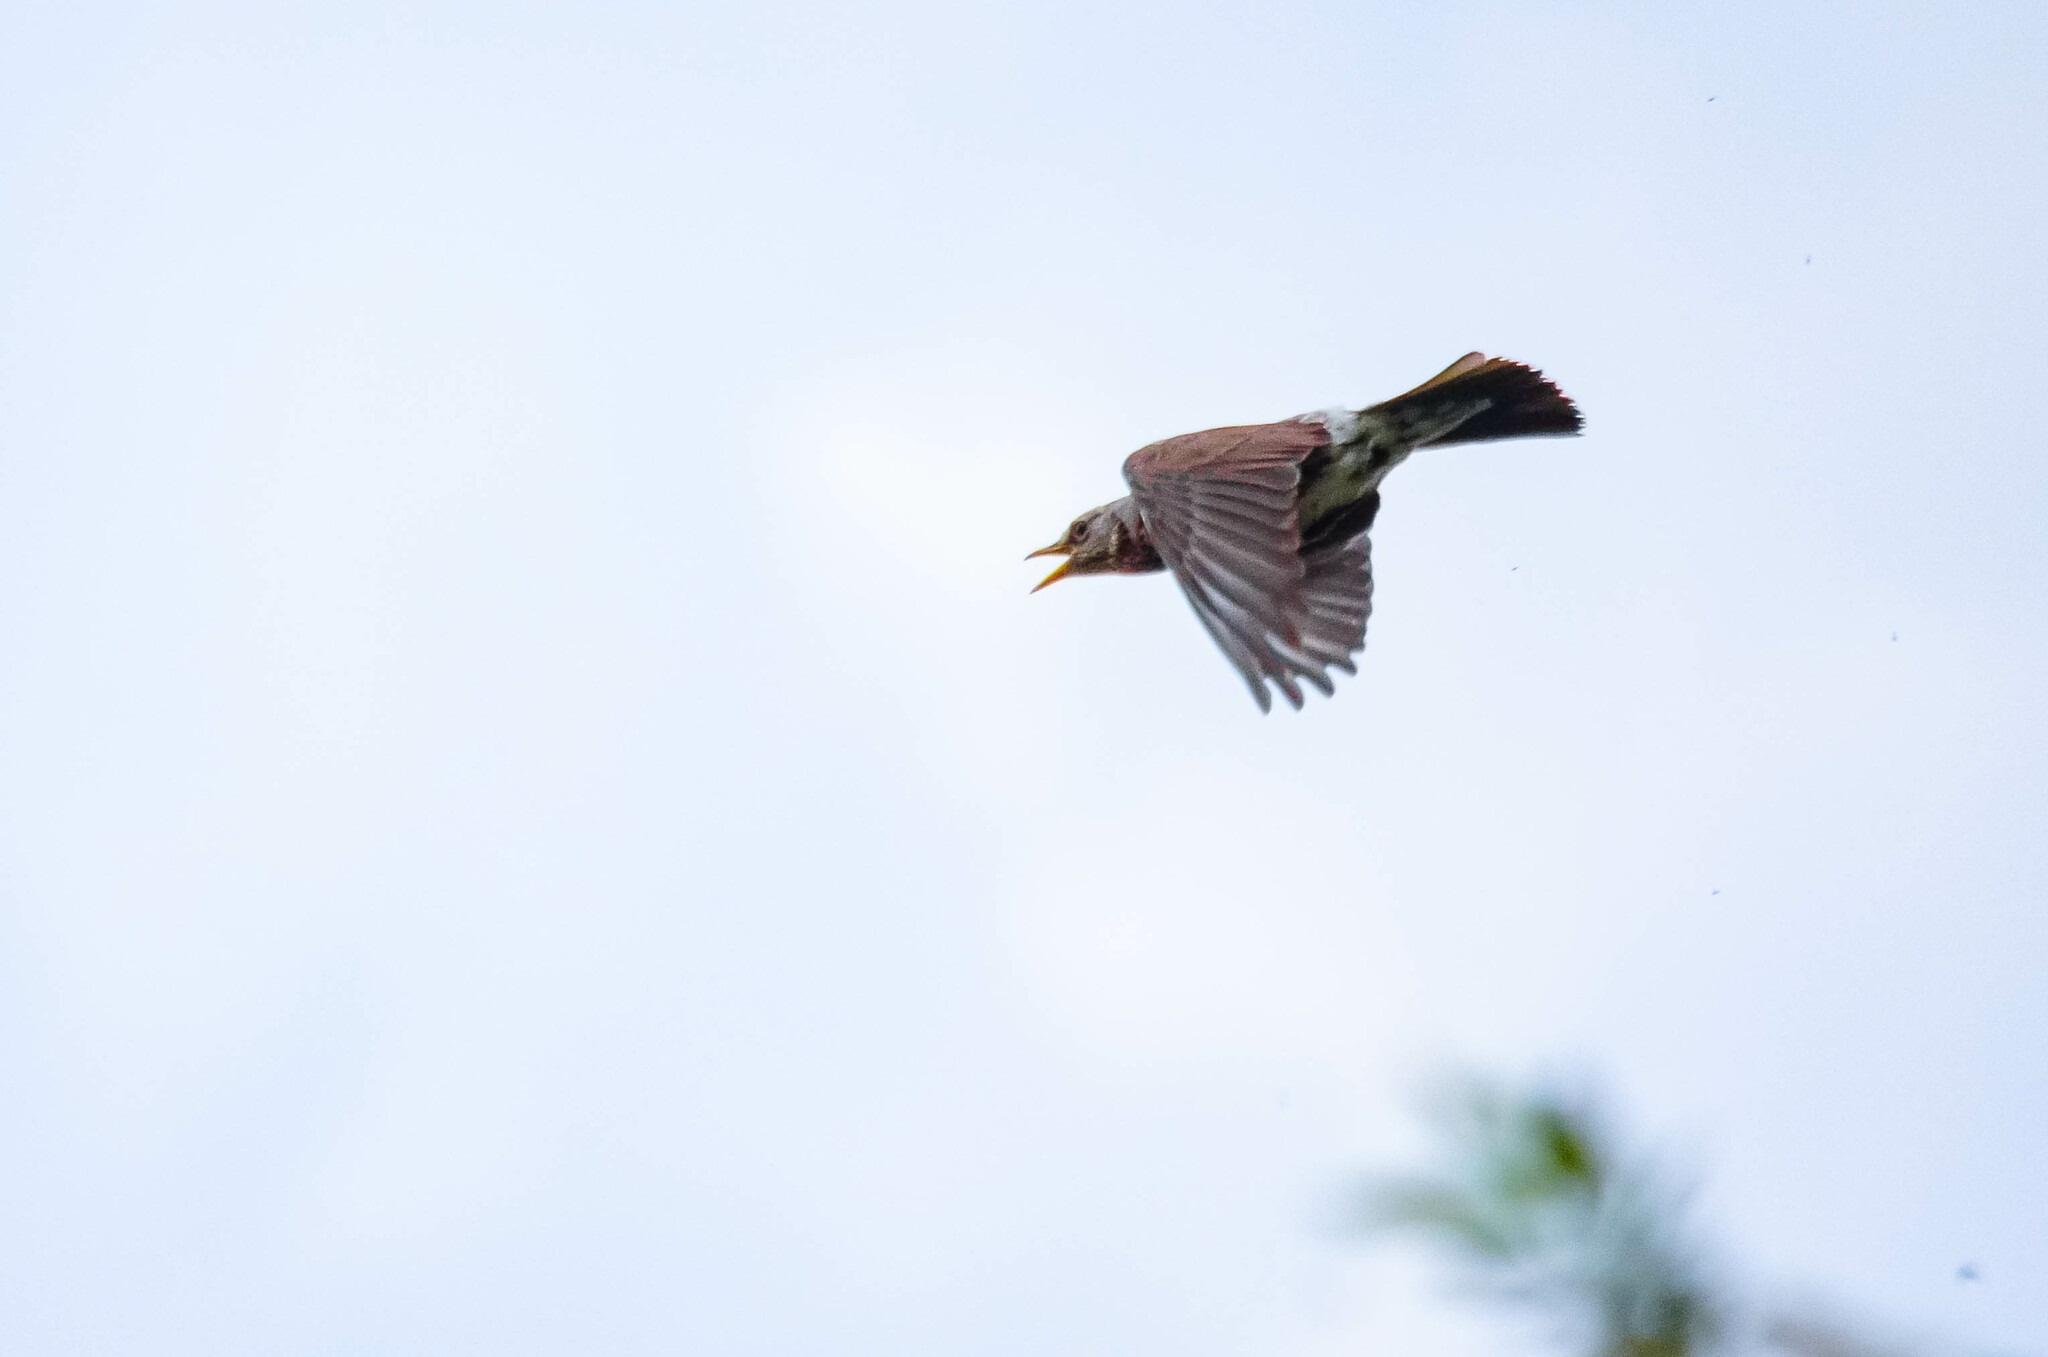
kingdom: Animalia
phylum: Chordata
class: Aves
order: Passeriformes
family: Turdidae
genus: Turdus
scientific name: Turdus pilaris
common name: Fieldfare
